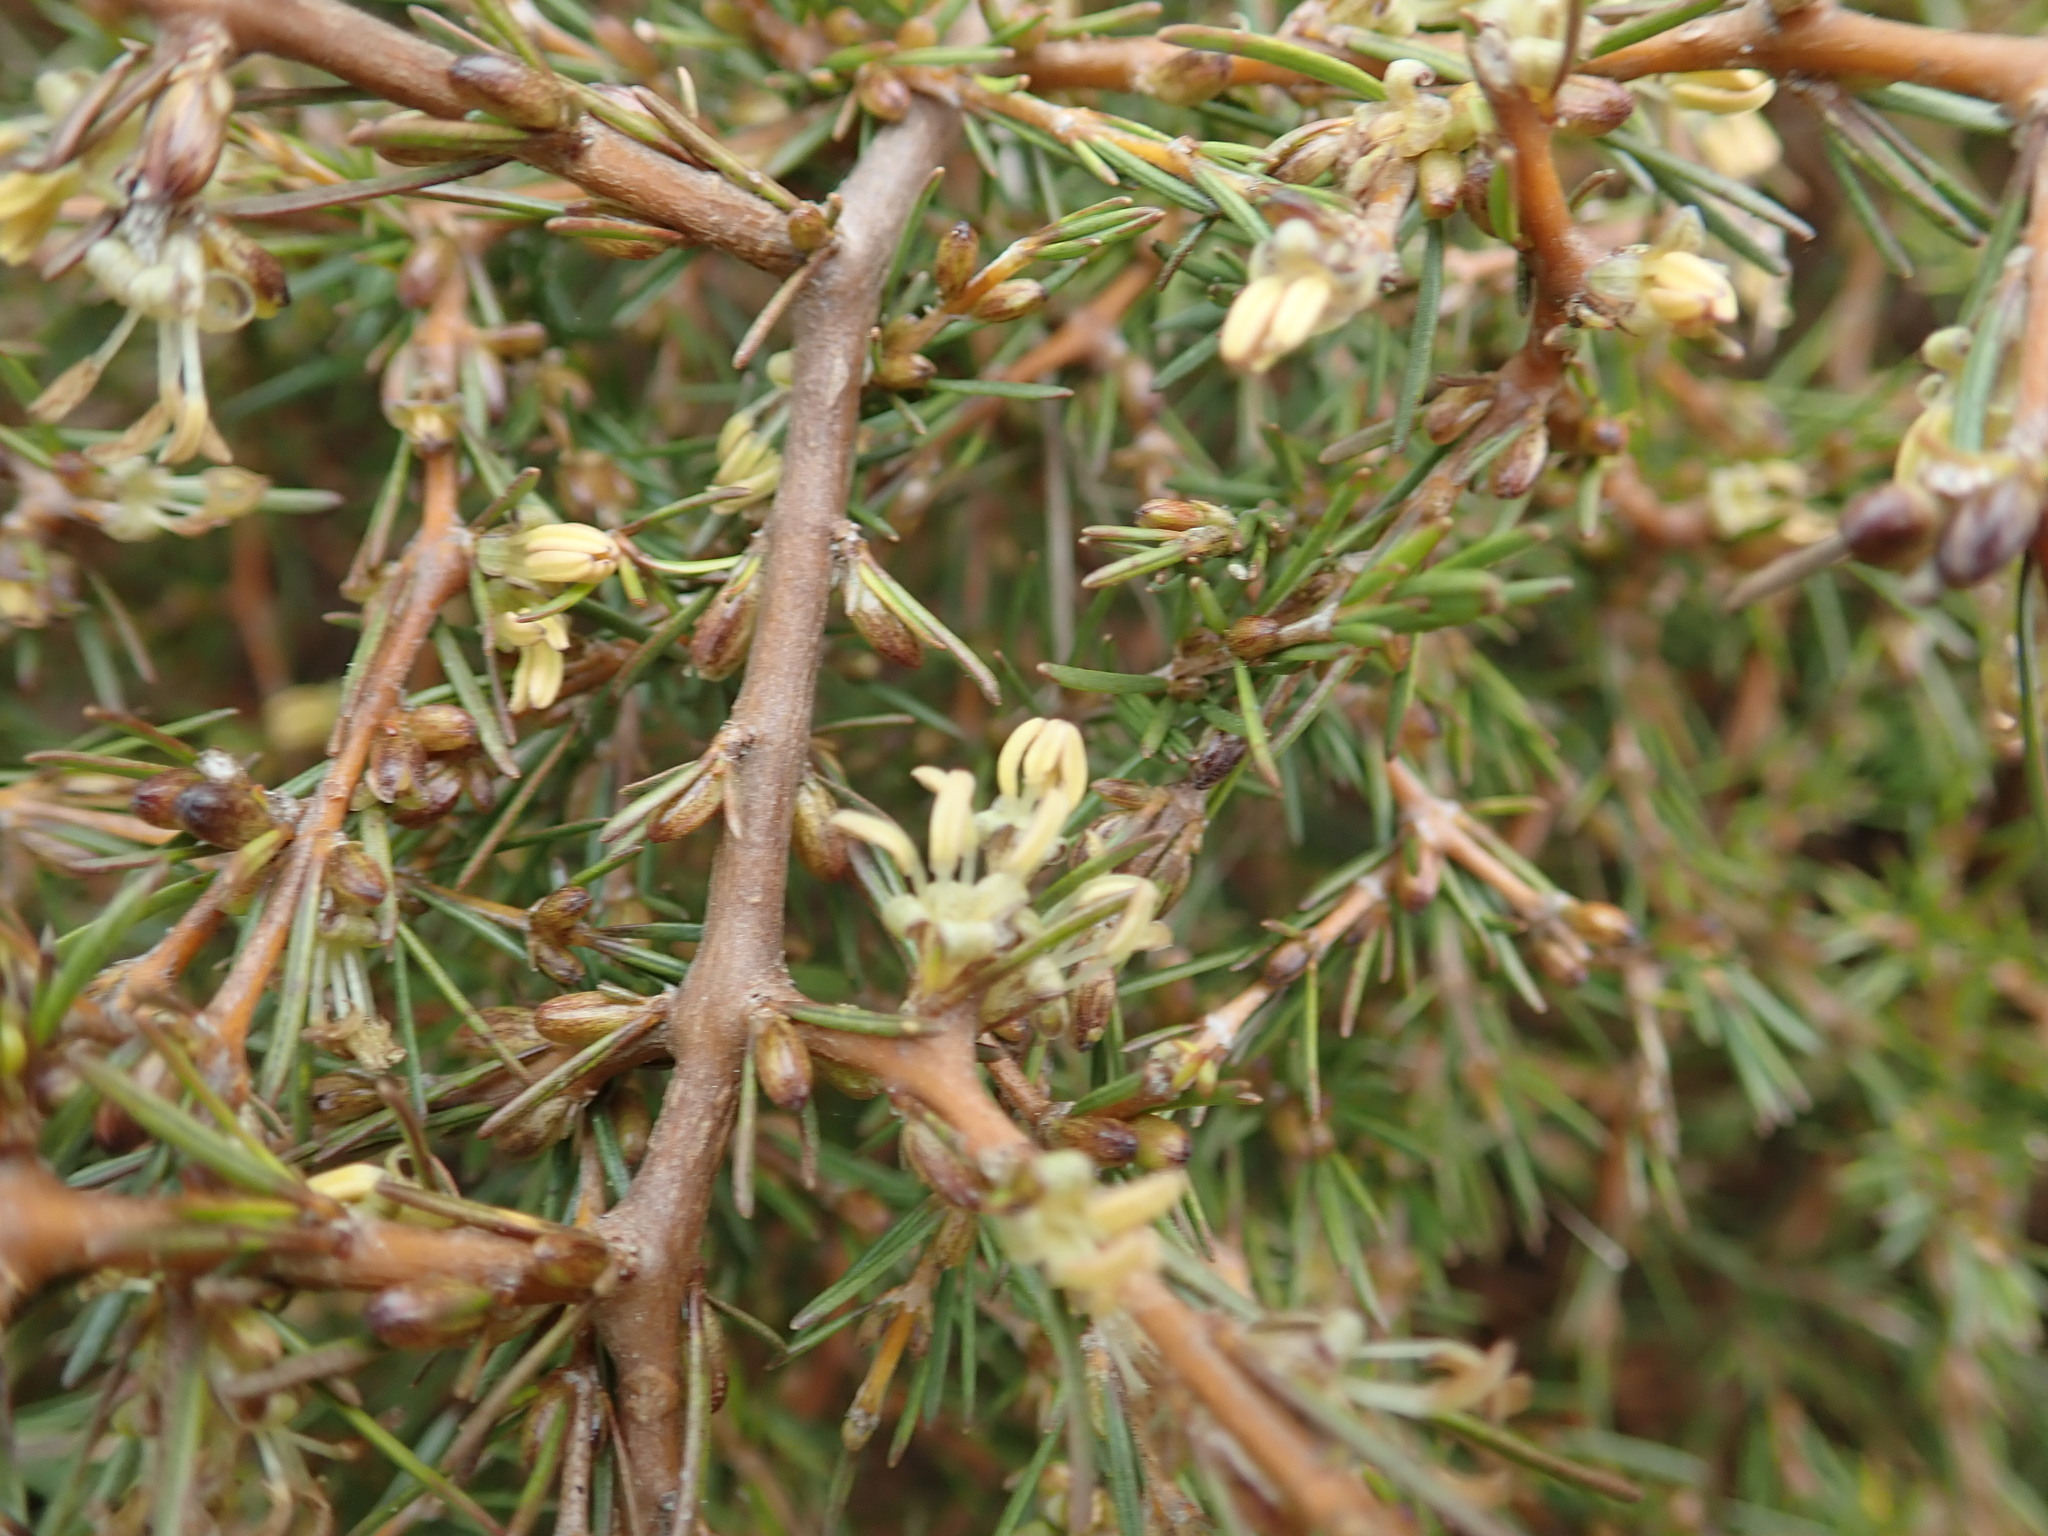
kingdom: Plantae
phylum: Tracheophyta
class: Magnoliopsida
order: Gentianales
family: Rubiaceae
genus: Coprosma
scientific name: Coprosma acerosa
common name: Sand coprosma
